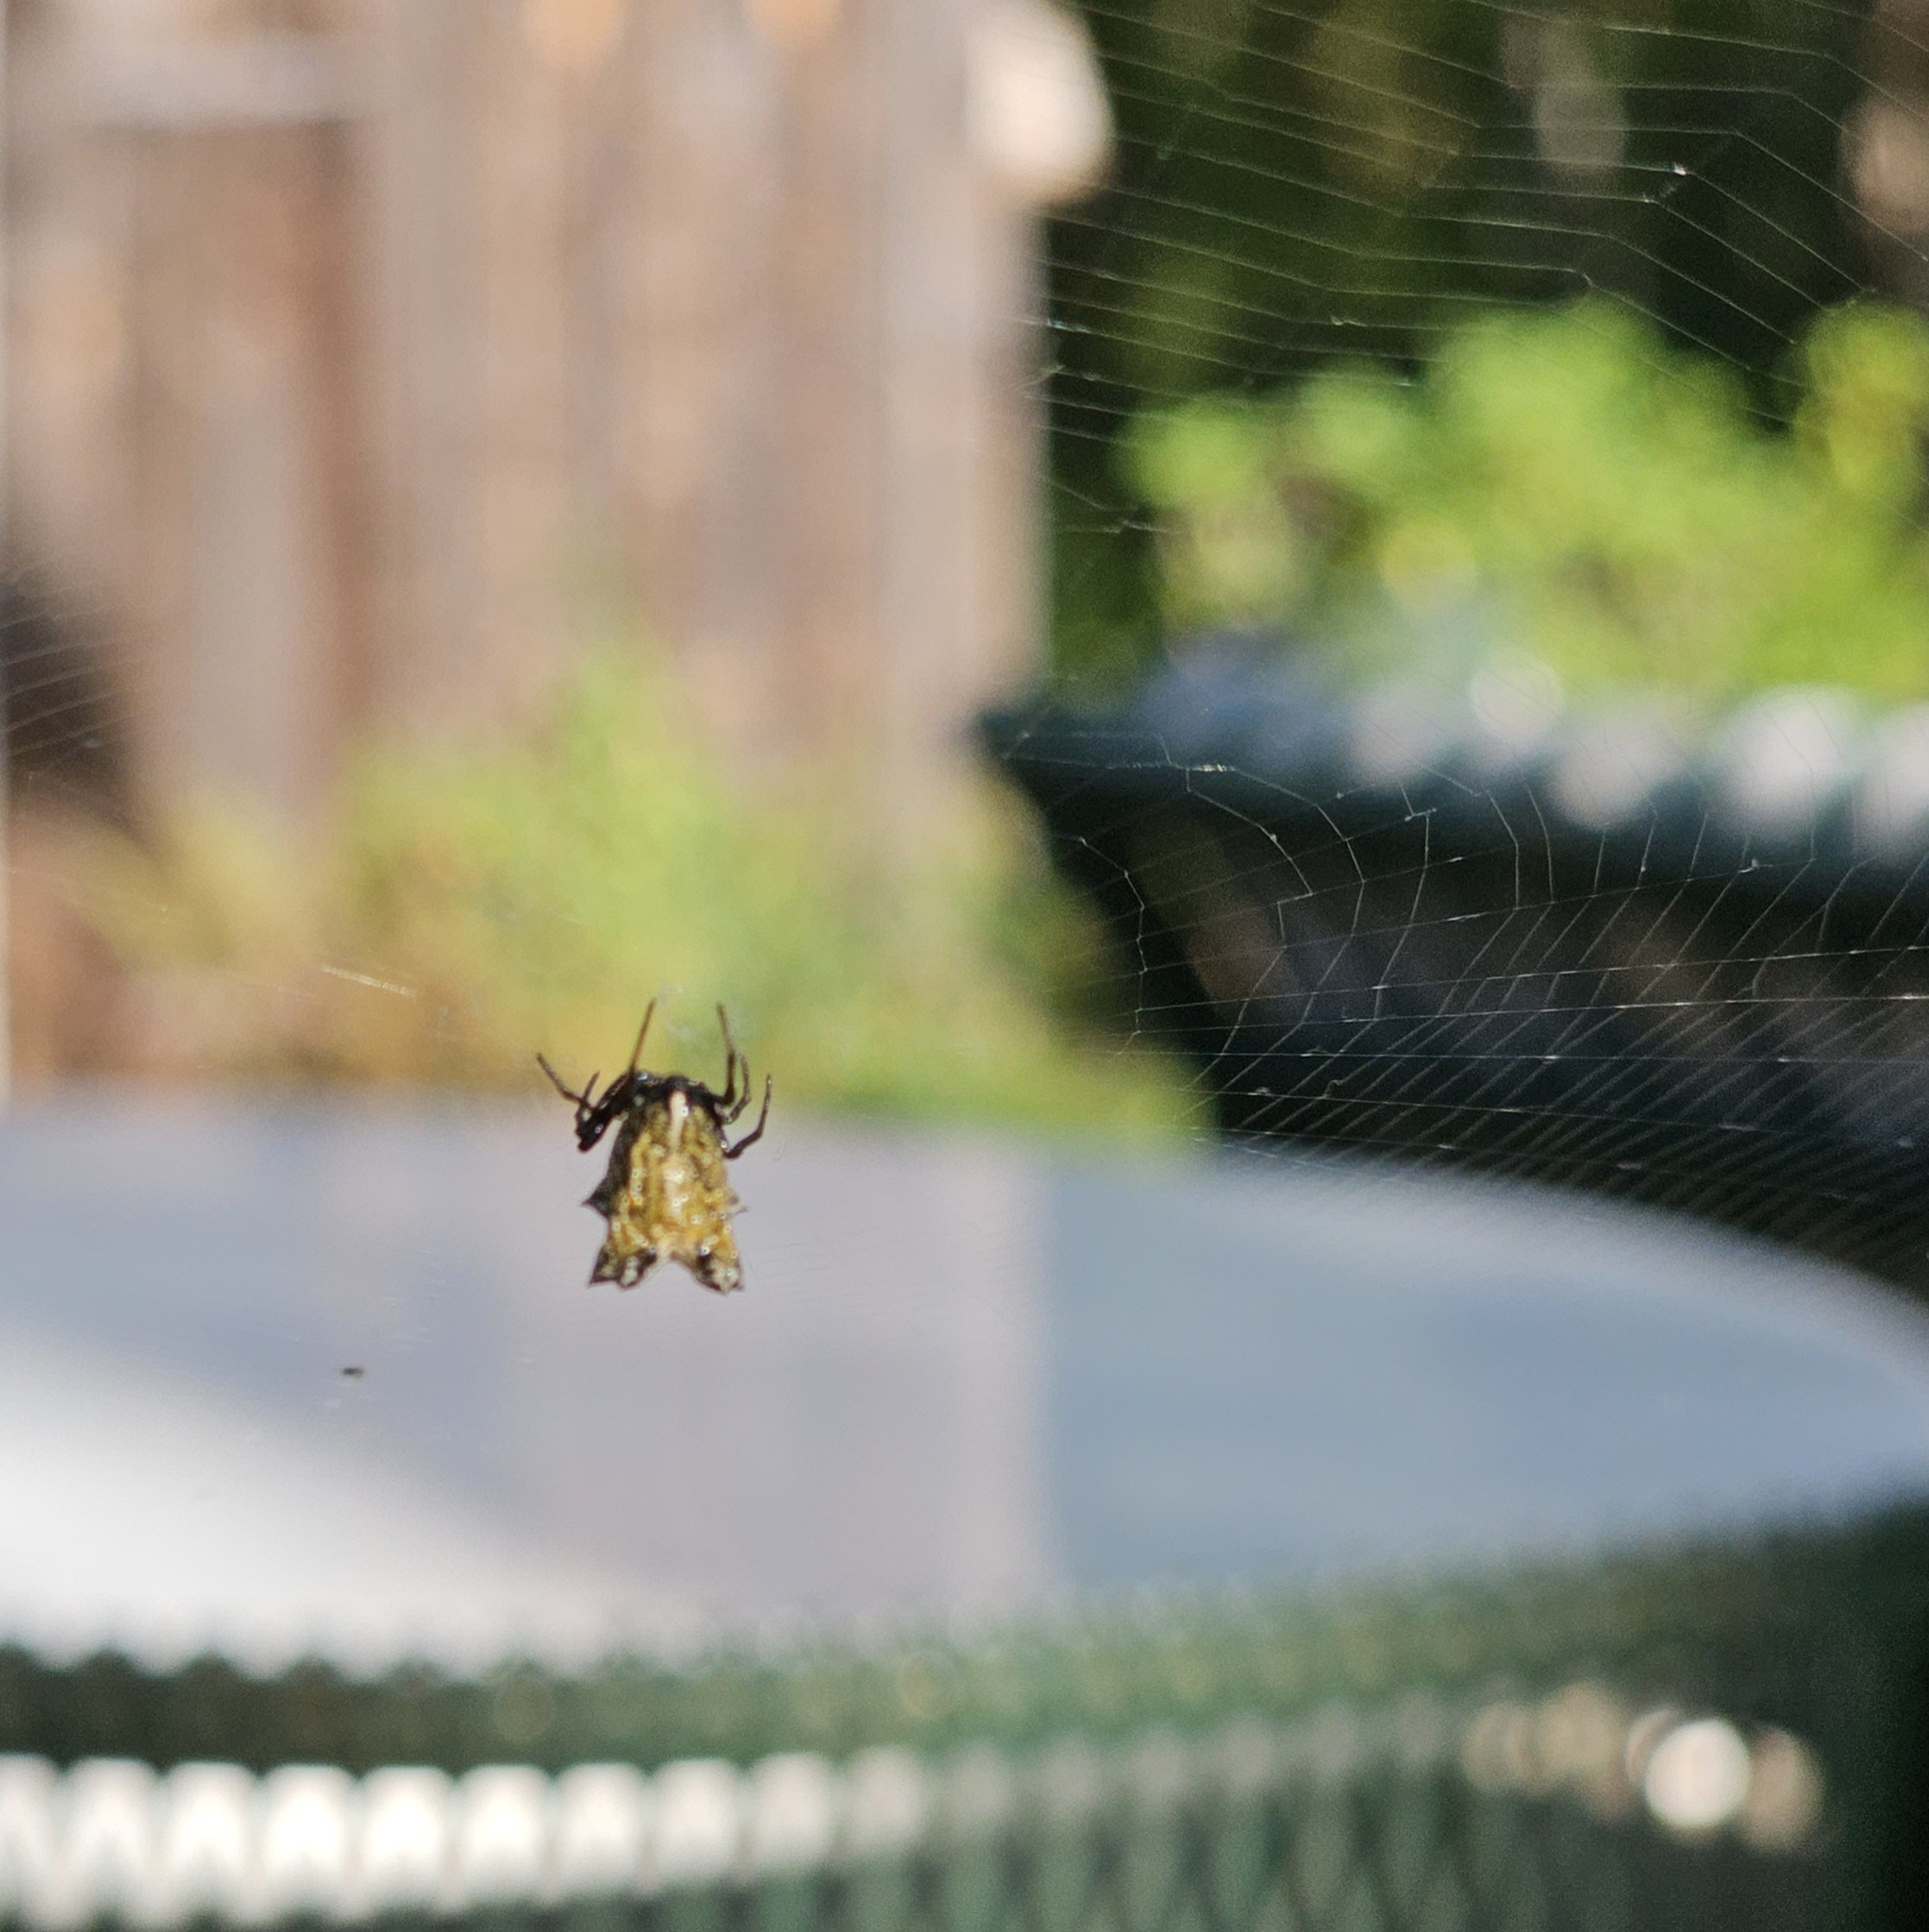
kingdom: Animalia
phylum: Arthropoda
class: Arachnida
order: Araneae
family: Araneidae
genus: Micrathena
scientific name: Micrathena gracilis
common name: Orb weavers
